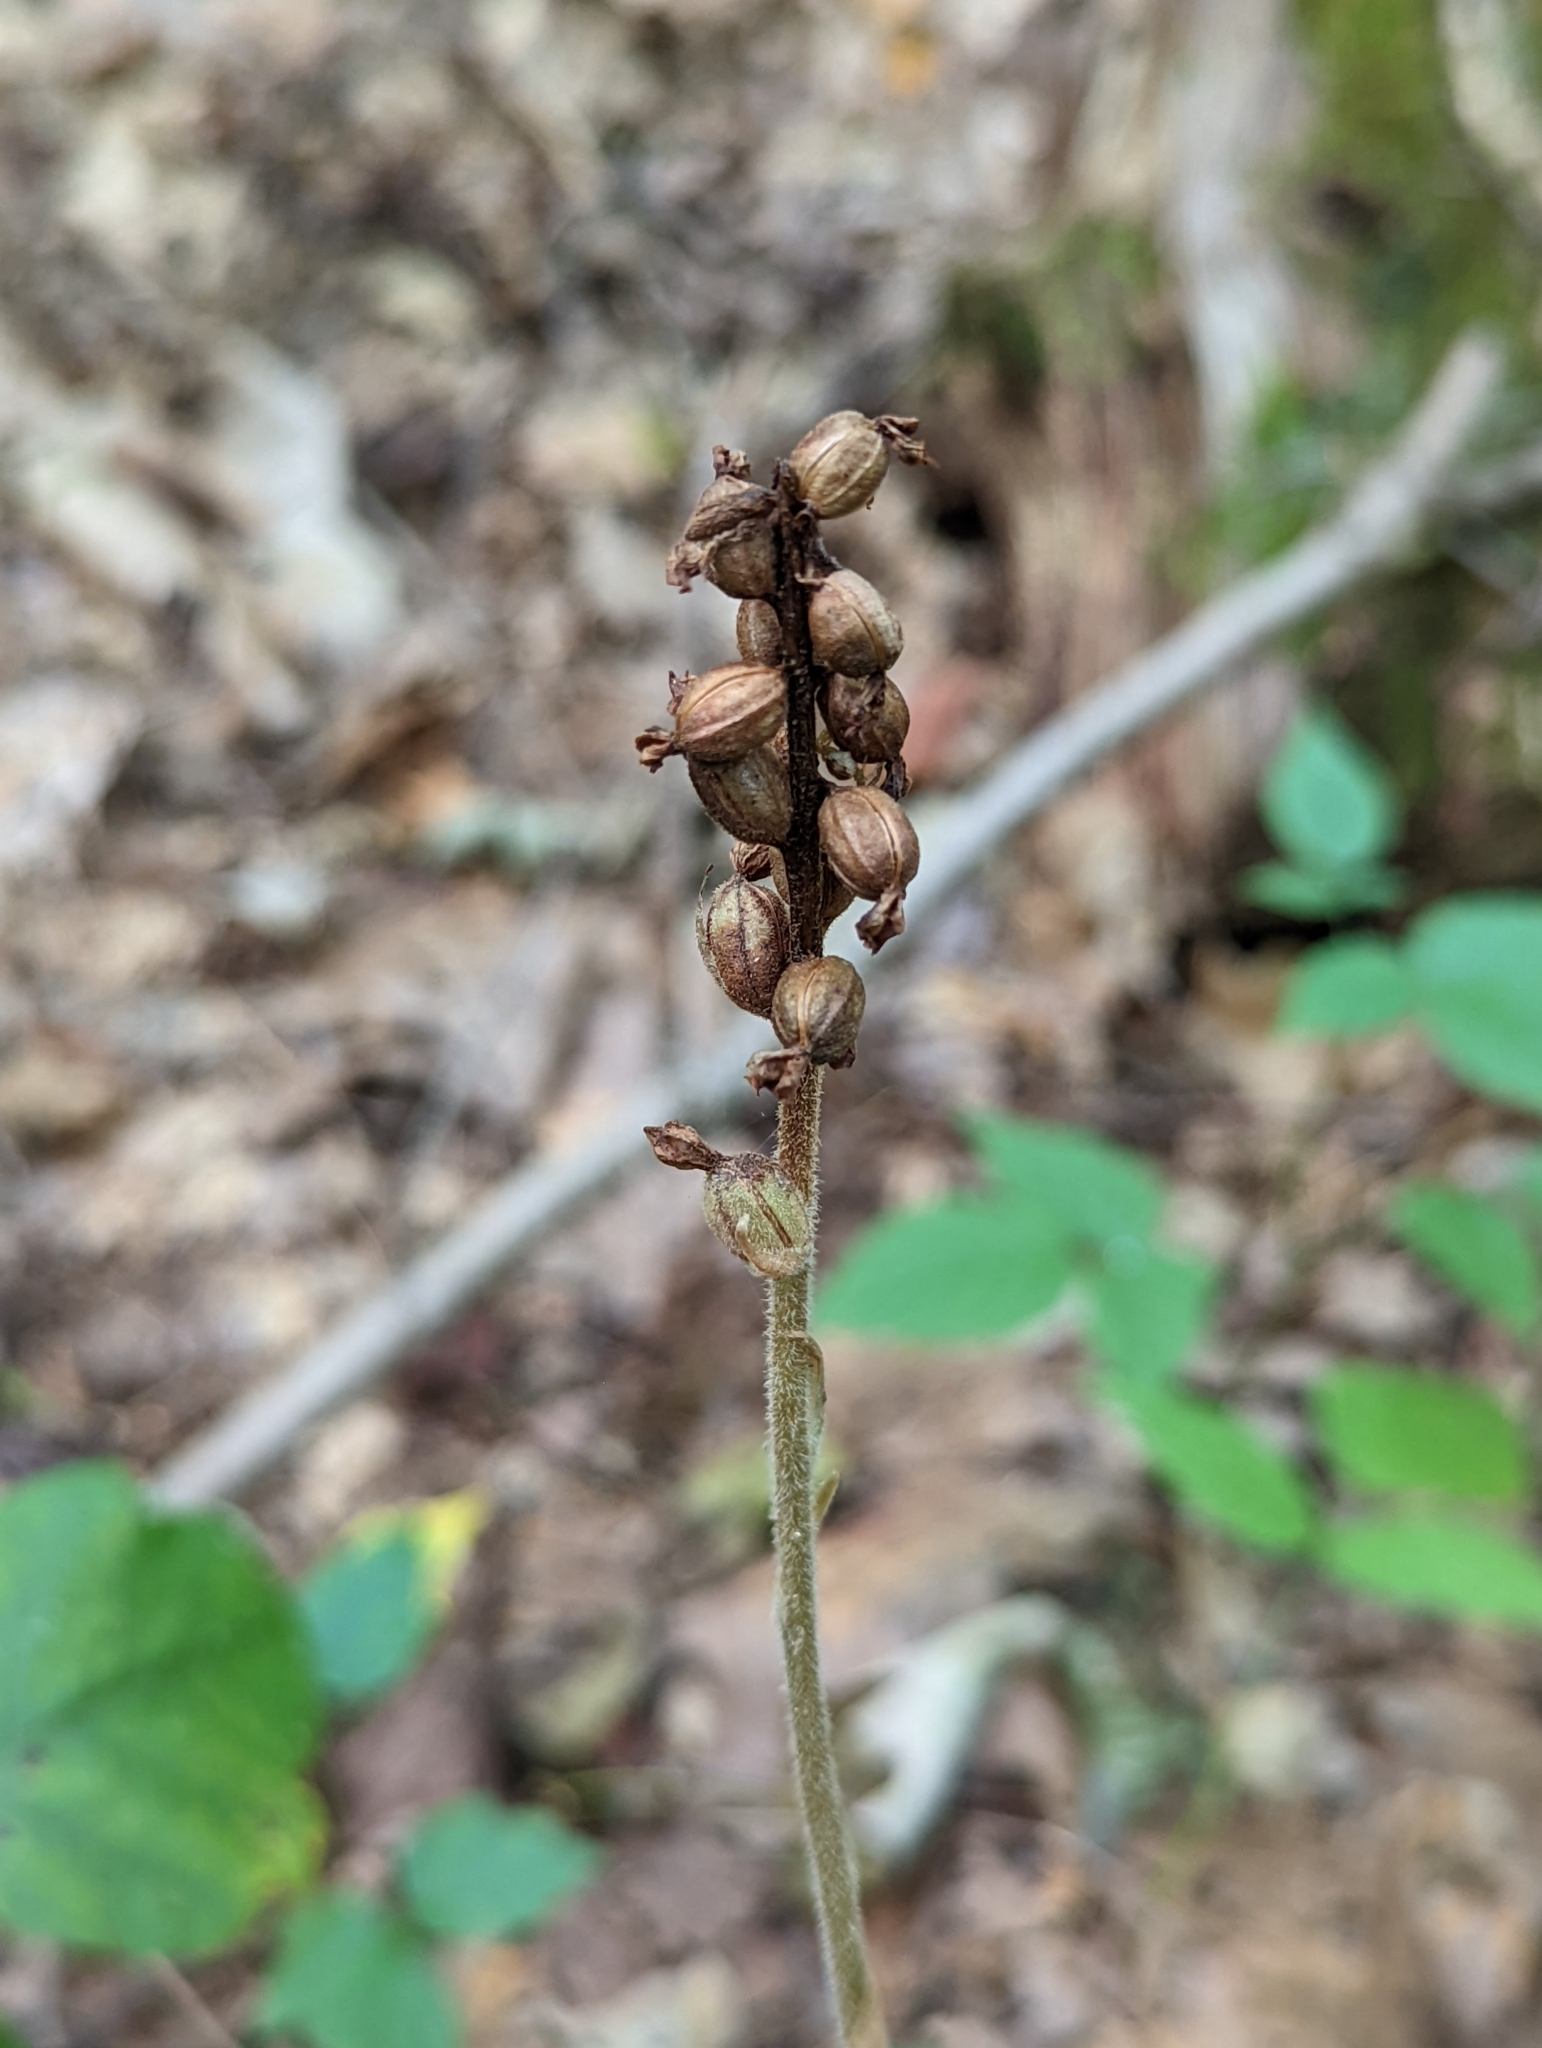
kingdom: Plantae
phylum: Tracheophyta
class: Liliopsida
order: Asparagales
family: Orchidaceae
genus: Goodyera
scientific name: Goodyera pubescens
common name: Downy rattlesnake-plantain
